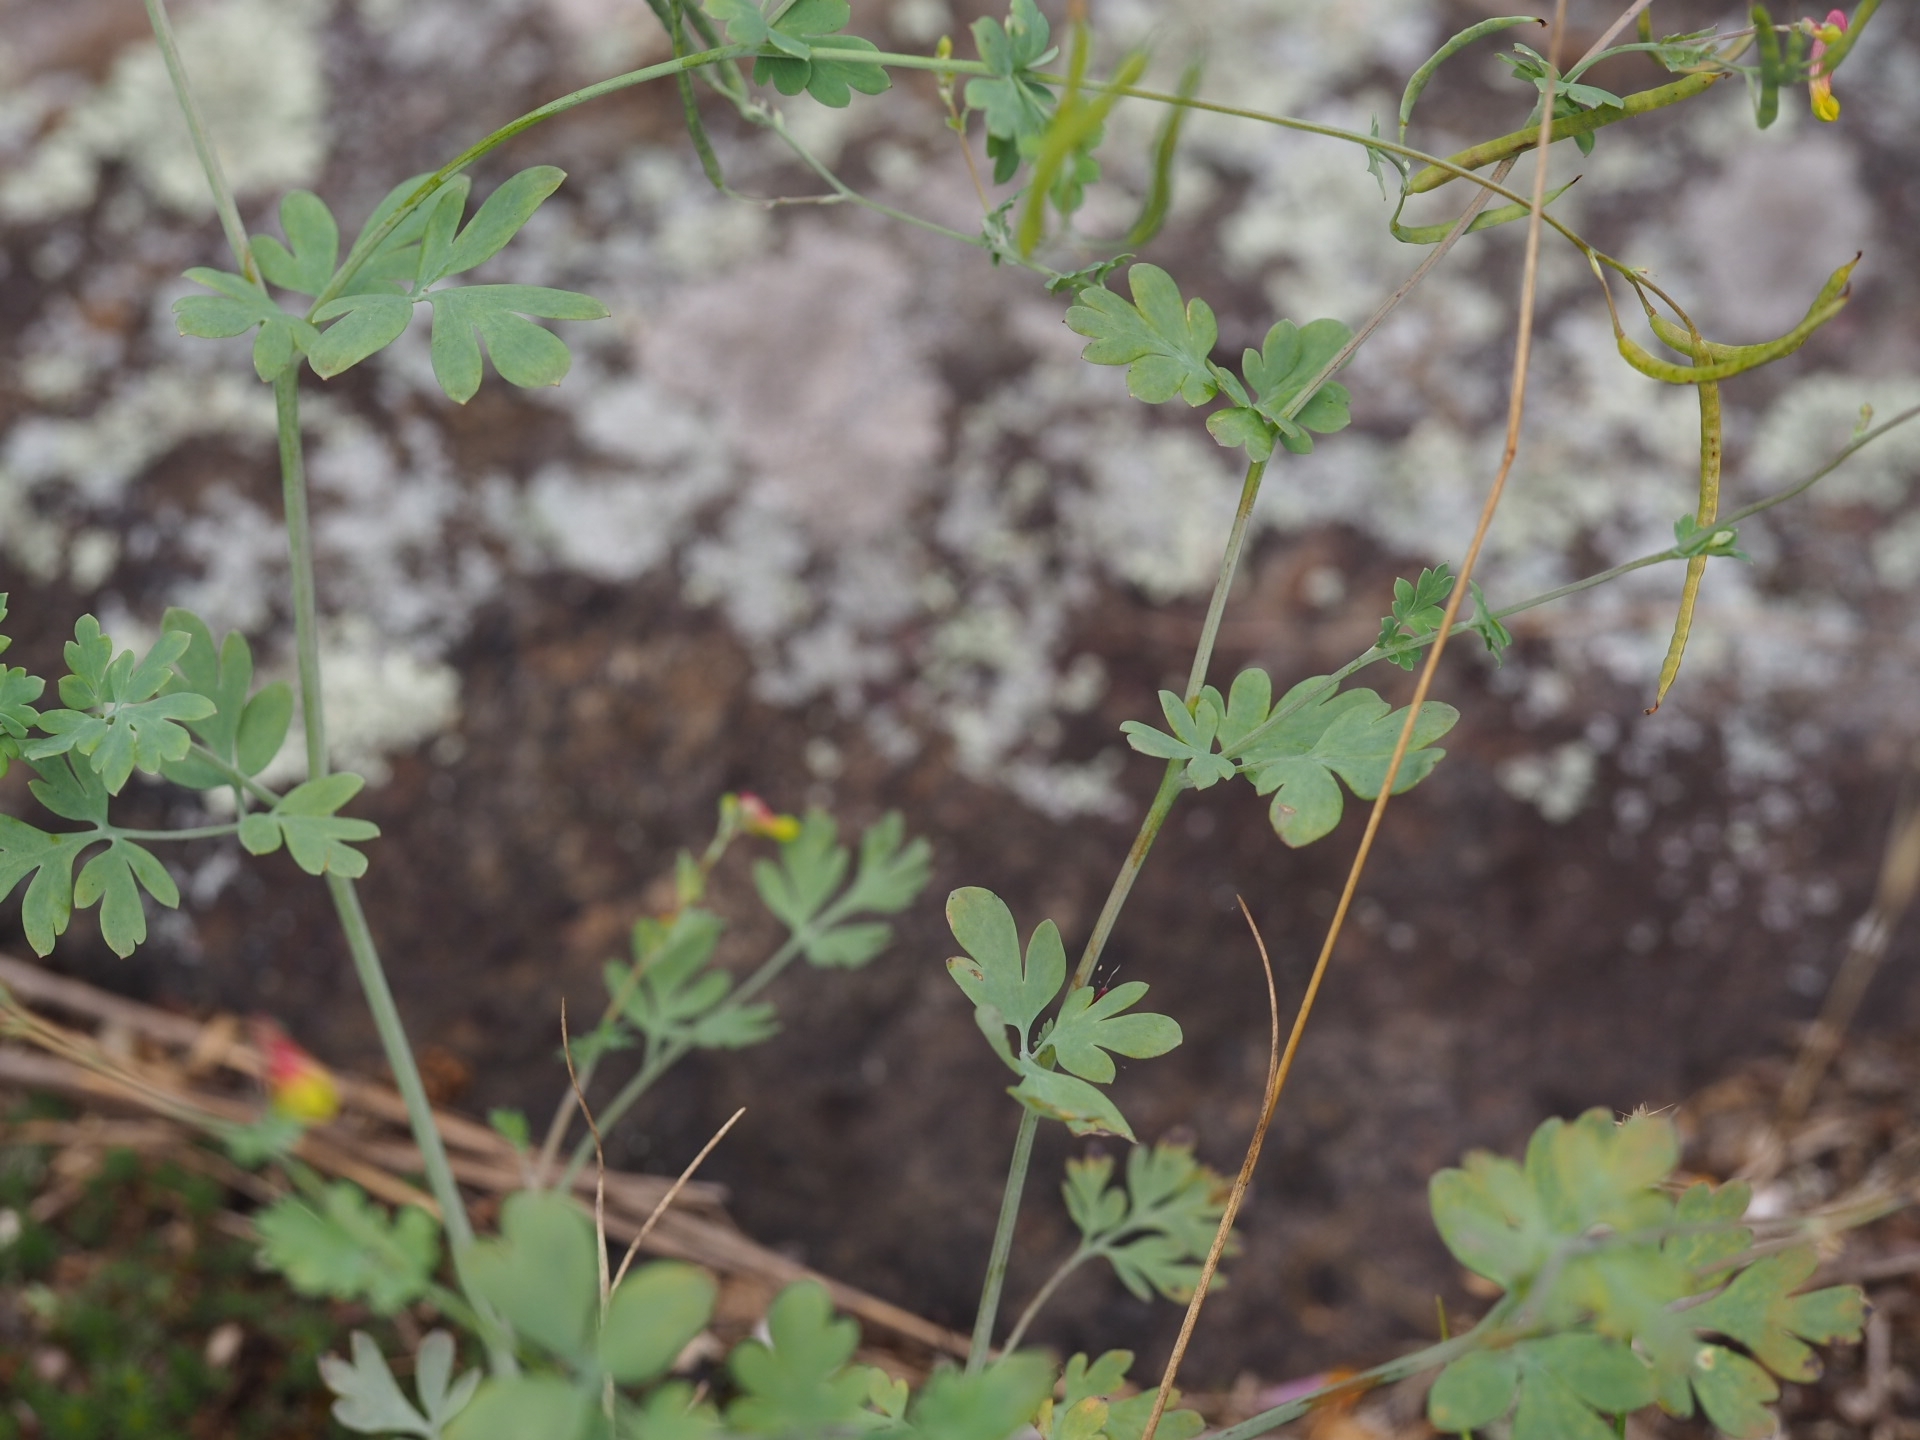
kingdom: Plantae
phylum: Tracheophyta
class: Magnoliopsida
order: Ranunculales
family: Papaveraceae
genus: Capnoides
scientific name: Capnoides sempervirens
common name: Rock harlequin
